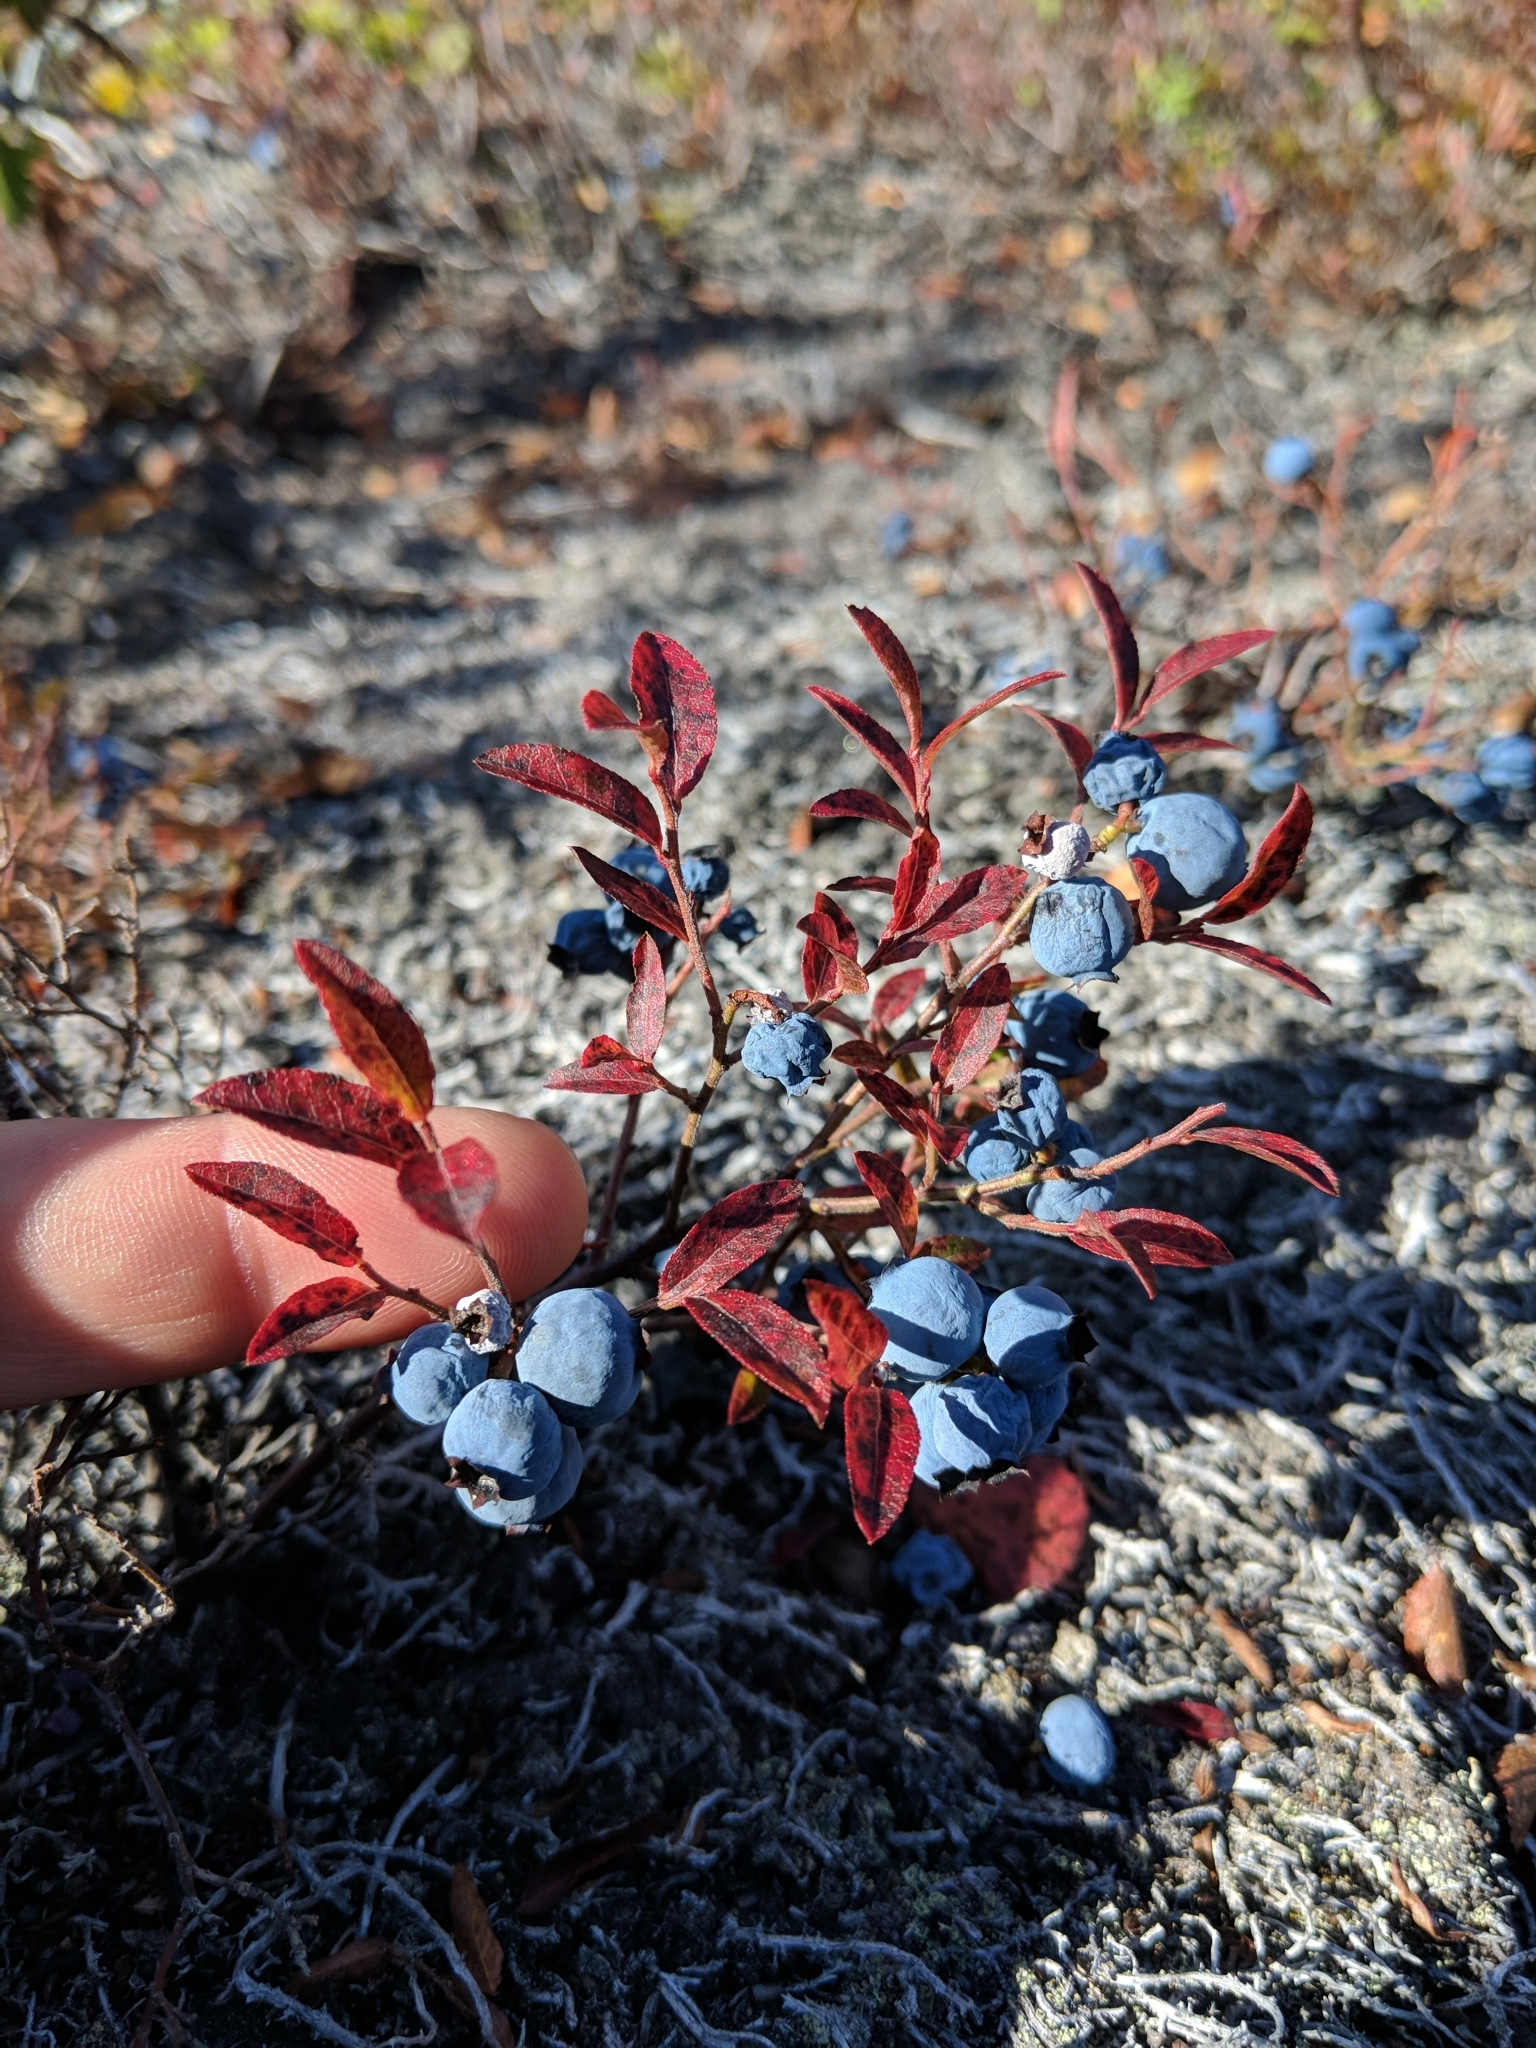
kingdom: Plantae
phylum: Tracheophyta
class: Magnoliopsida
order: Ericales
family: Ericaceae
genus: Vaccinium
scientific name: Vaccinium boreale
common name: Northern blueberry
